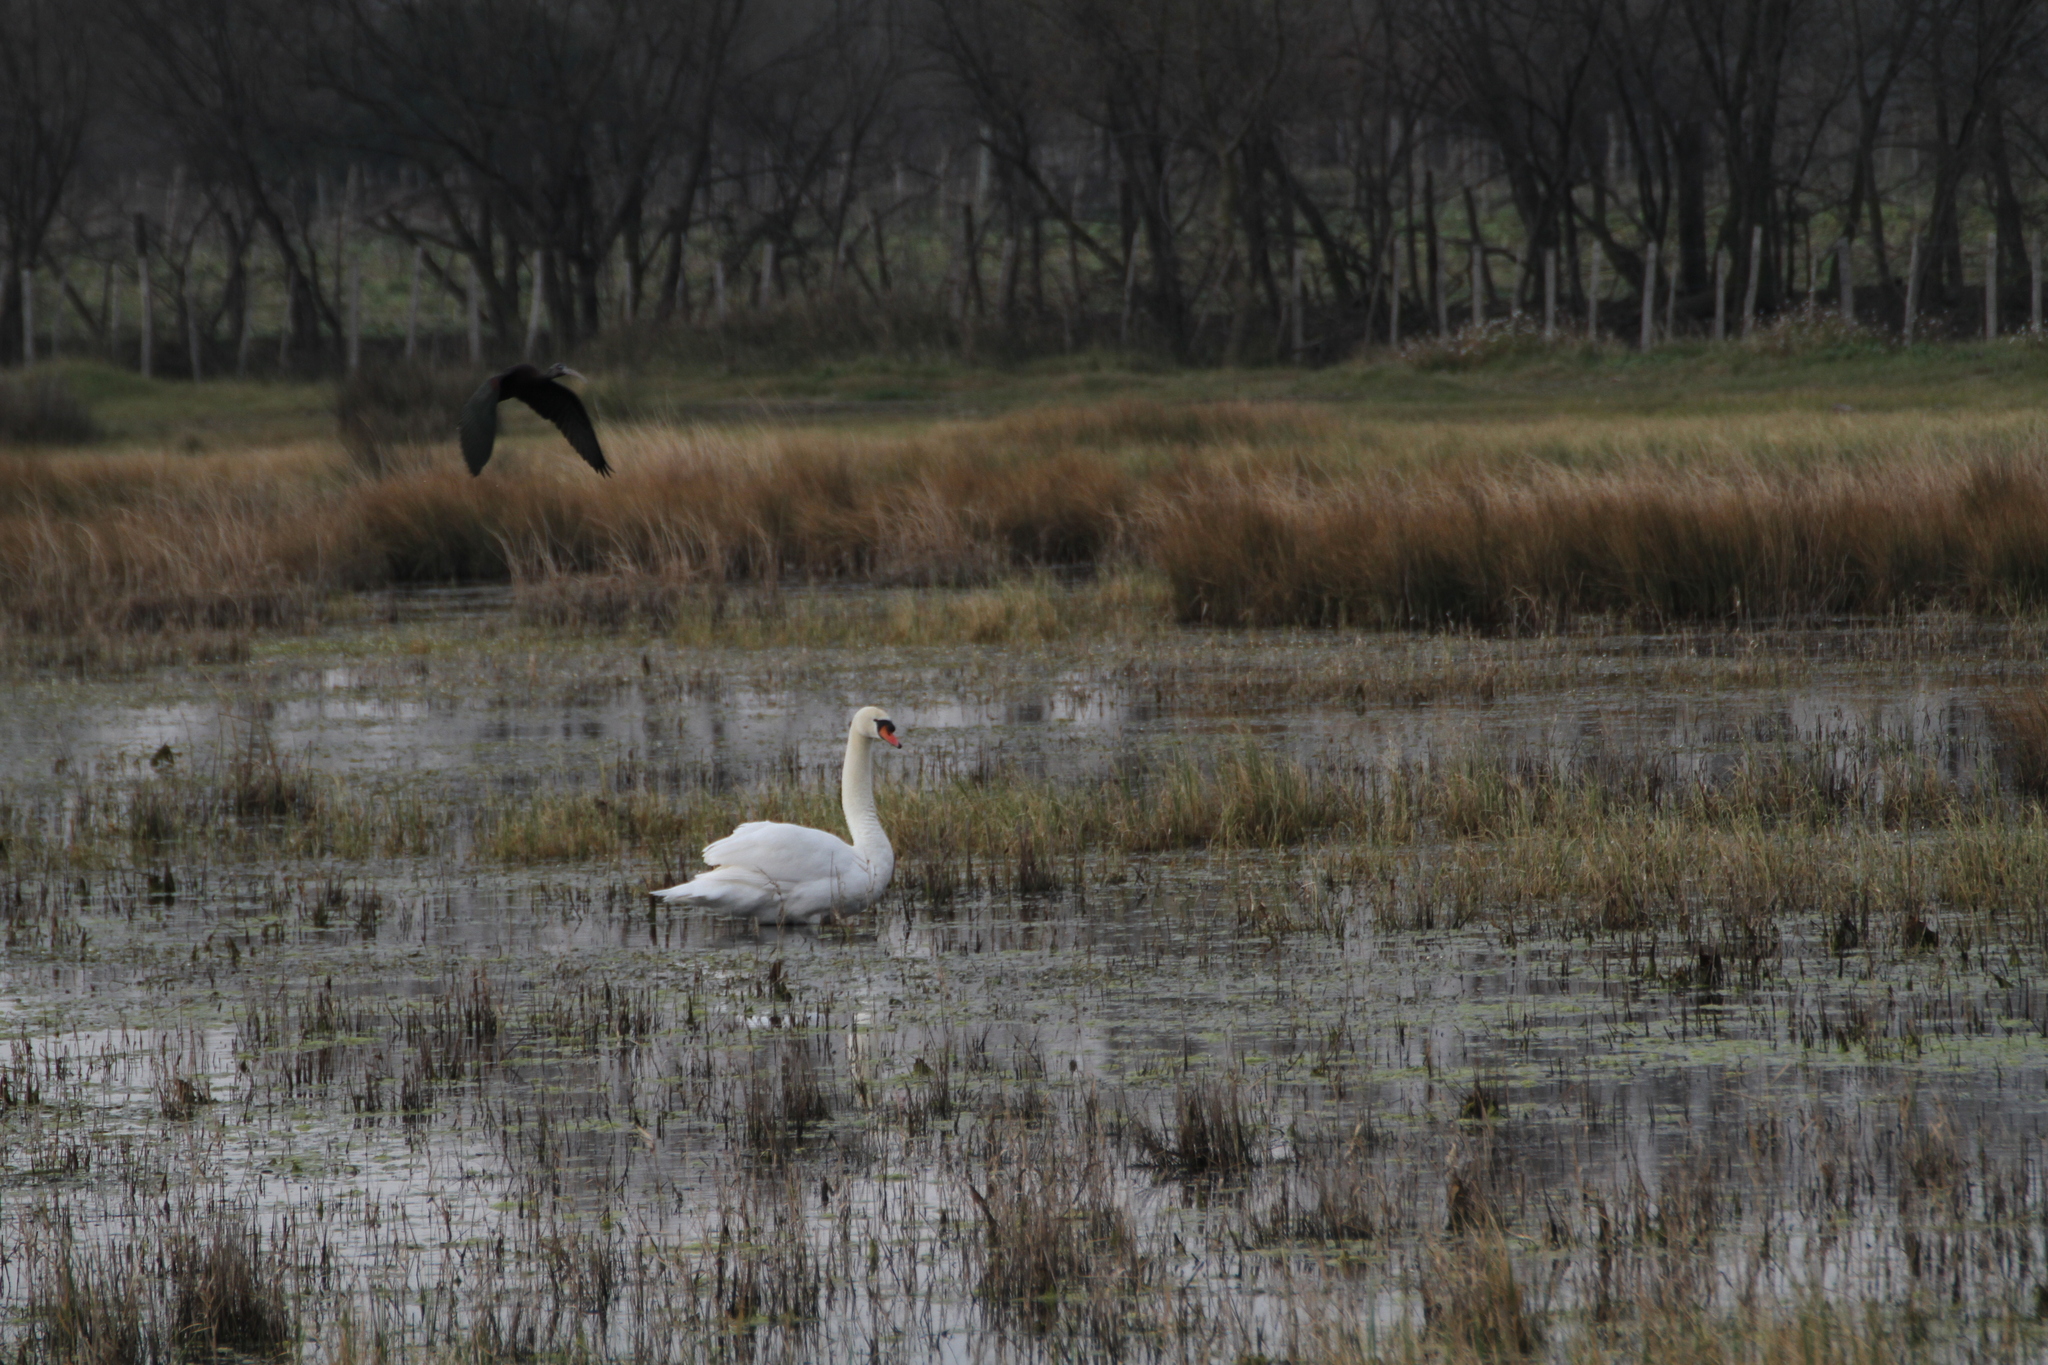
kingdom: Animalia
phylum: Chordata
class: Aves
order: Anseriformes
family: Anatidae
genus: Cygnus
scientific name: Cygnus olor
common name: Mute swan
